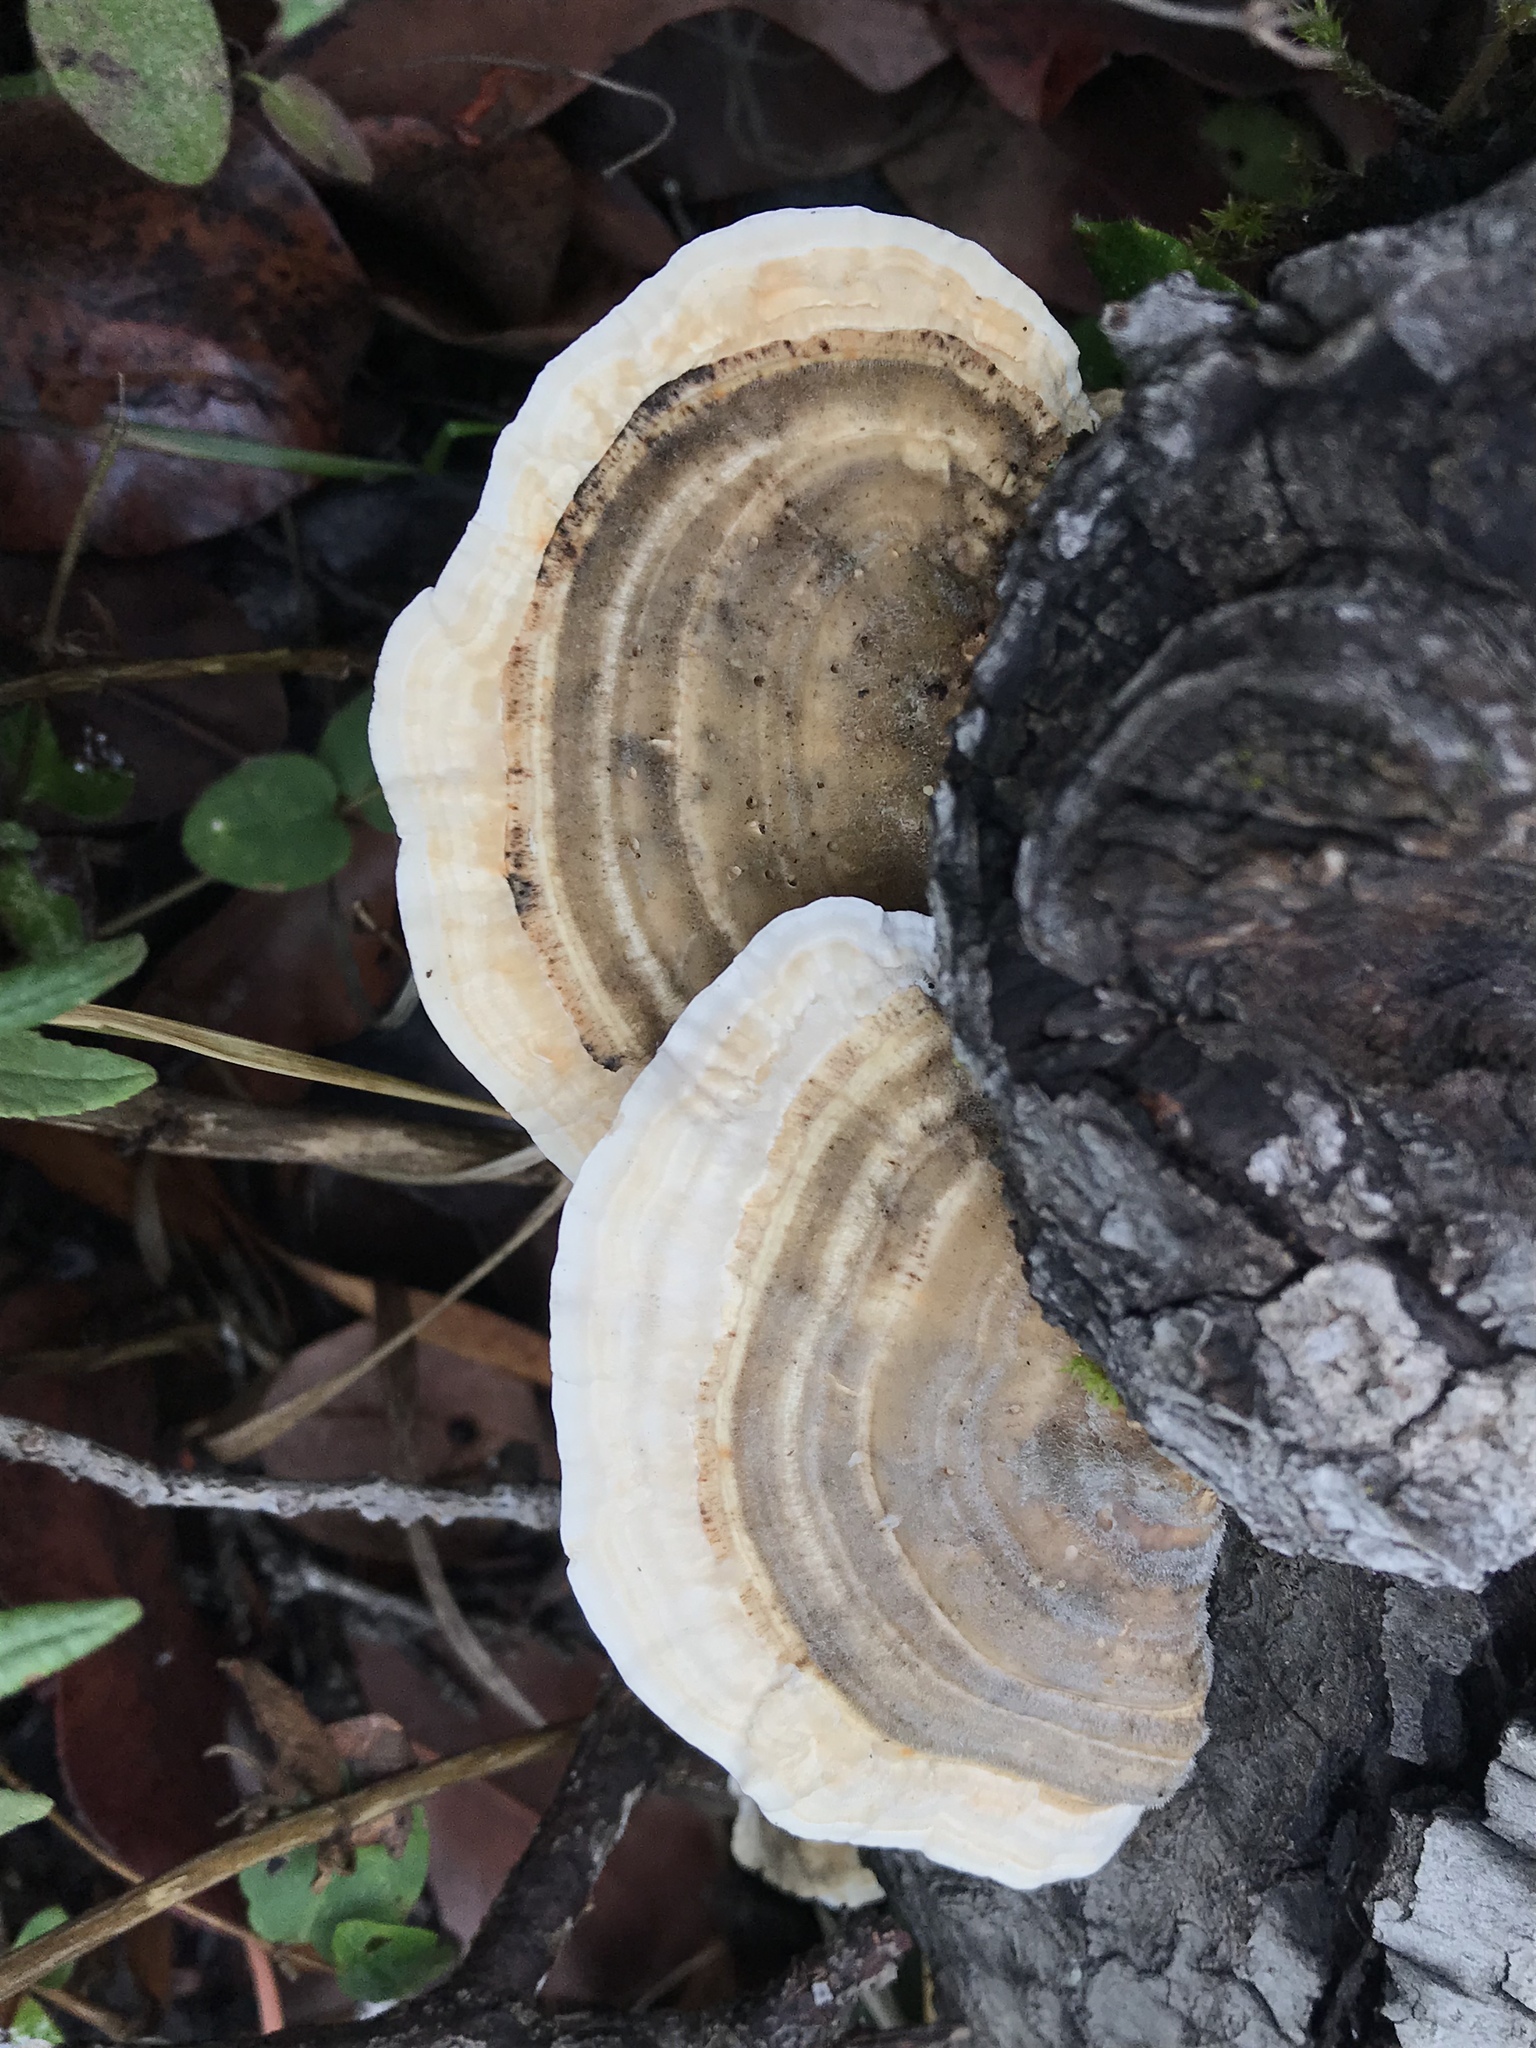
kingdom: Fungi
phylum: Basidiomycota
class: Agaricomycetes
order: Polyporales
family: Polyporaceae
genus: Lenzites
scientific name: Lenzites betulinus
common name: Birch mazegill
